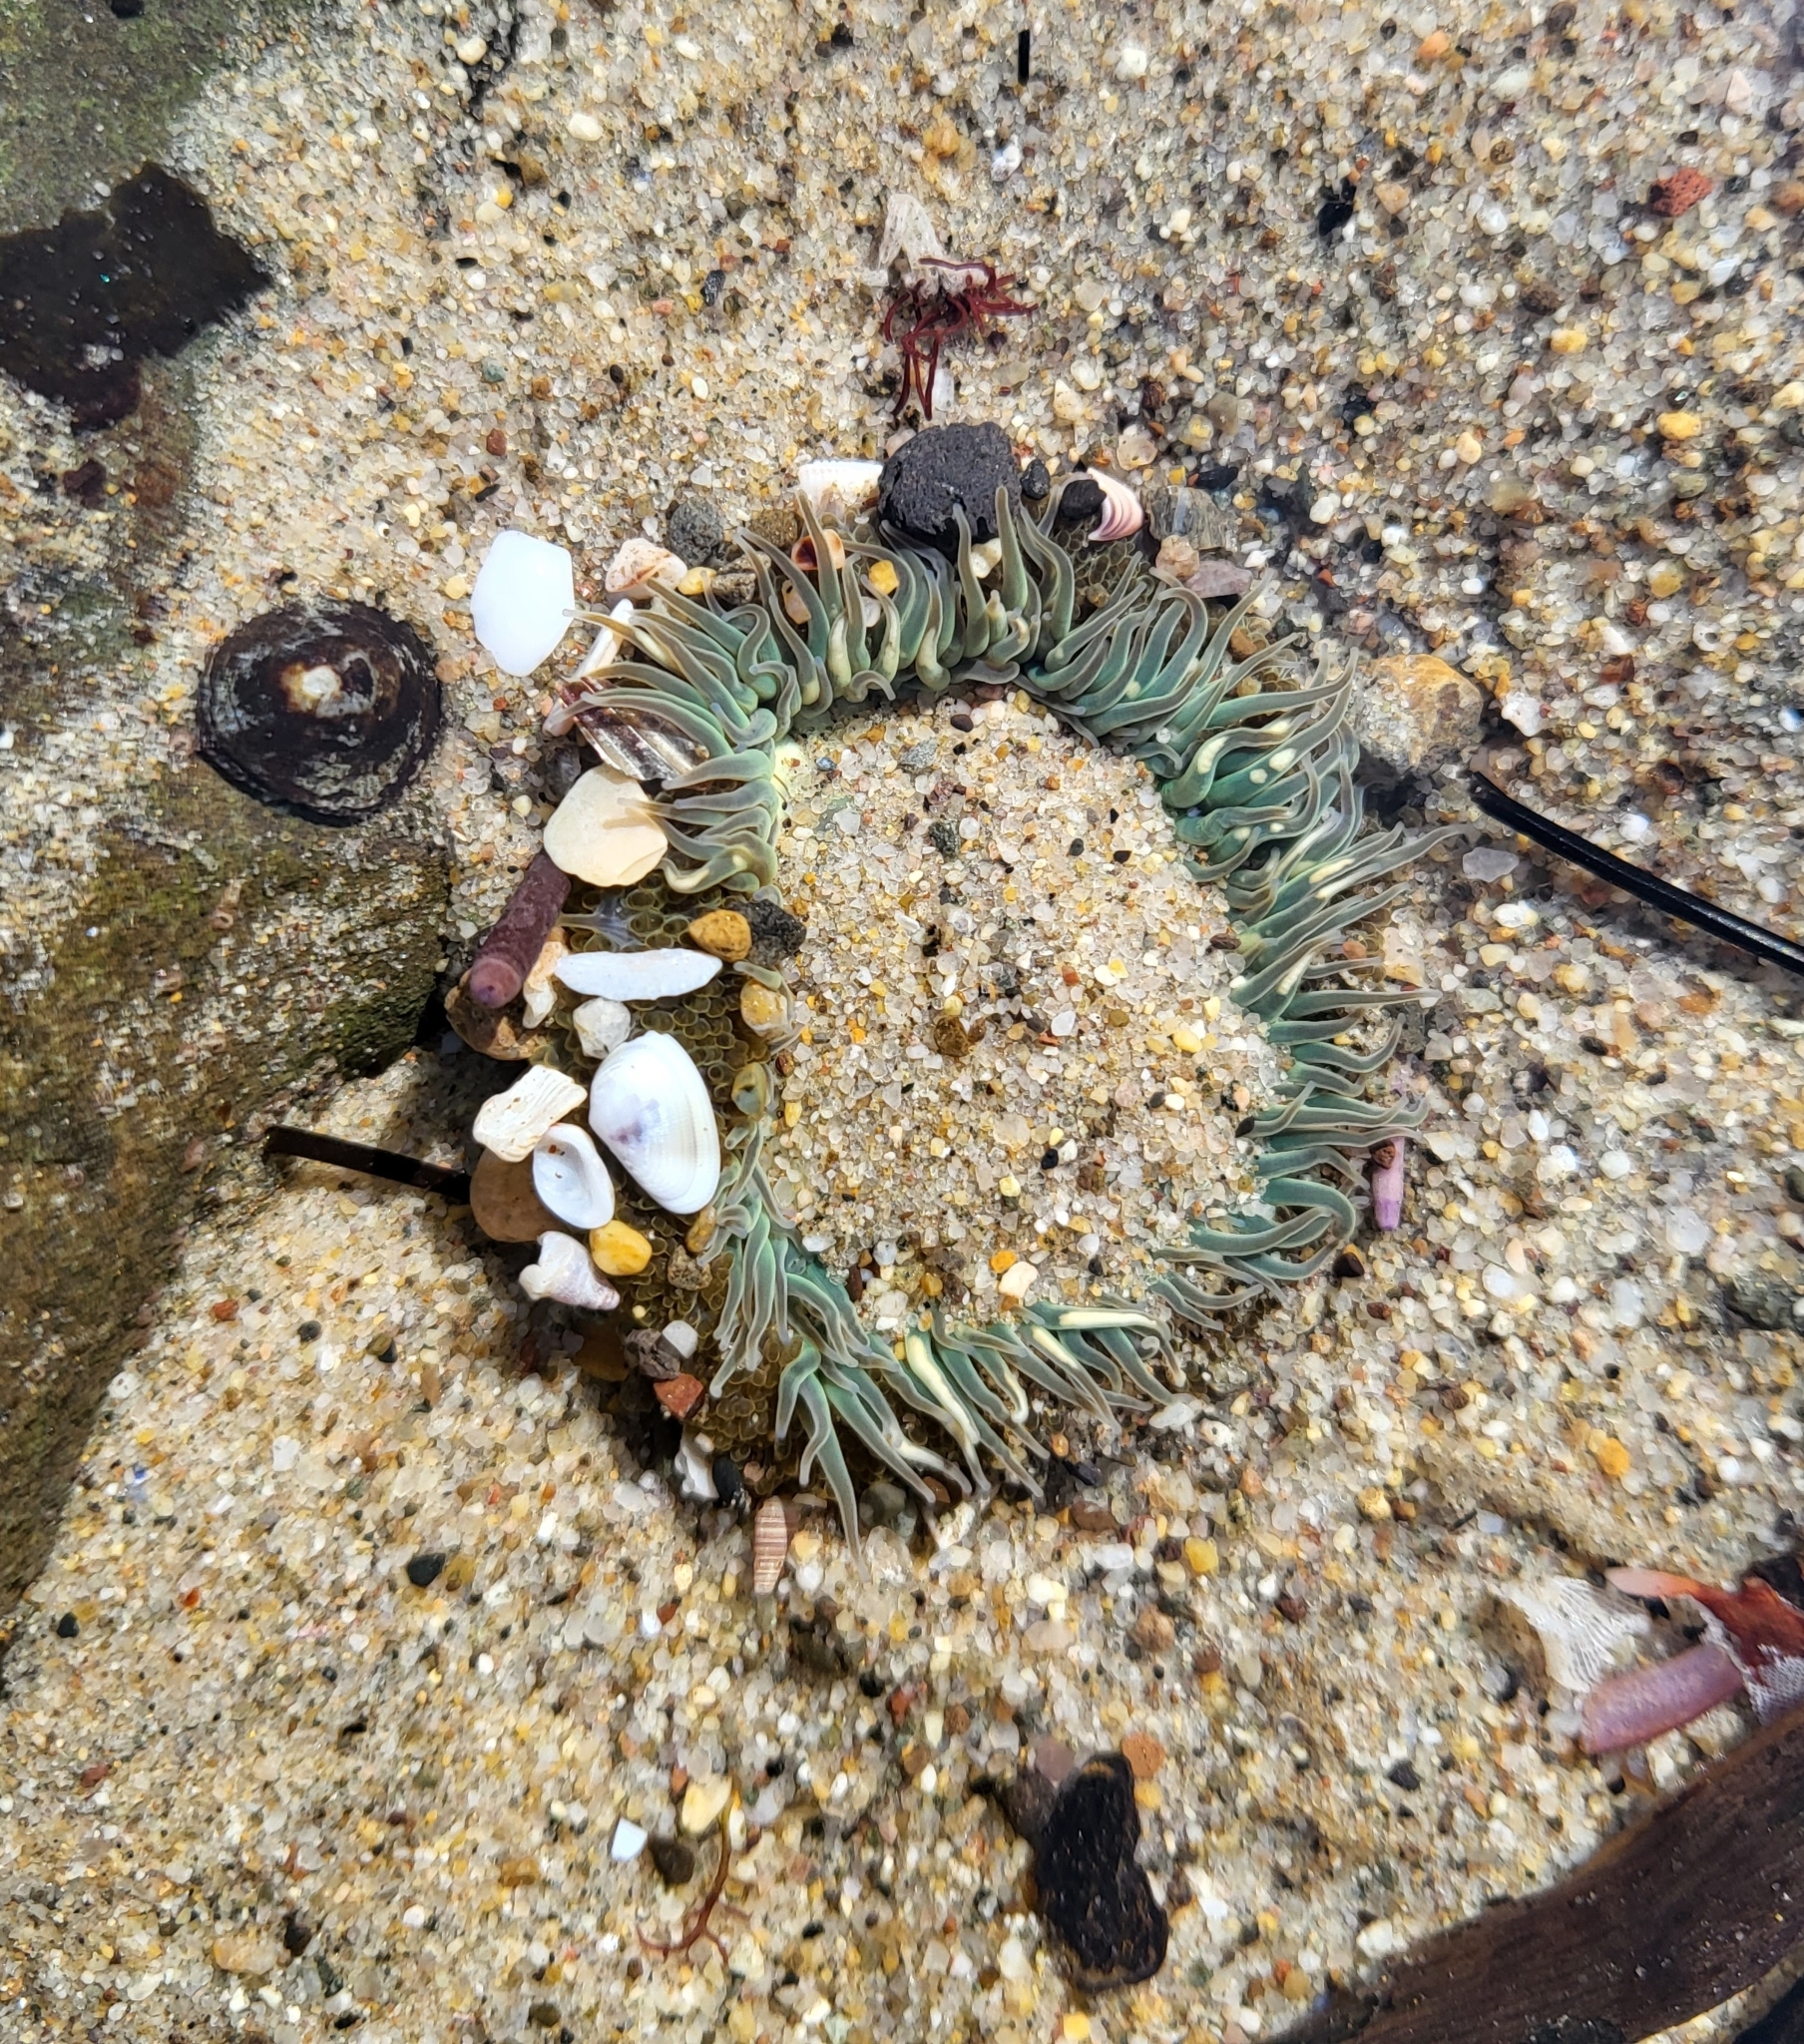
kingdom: Animalia
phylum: Cnidaria
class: Anthozoa
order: Actiniaria
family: Actiniidae
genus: Anthopleura
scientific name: Anthopleura sola
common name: Sun anemone
